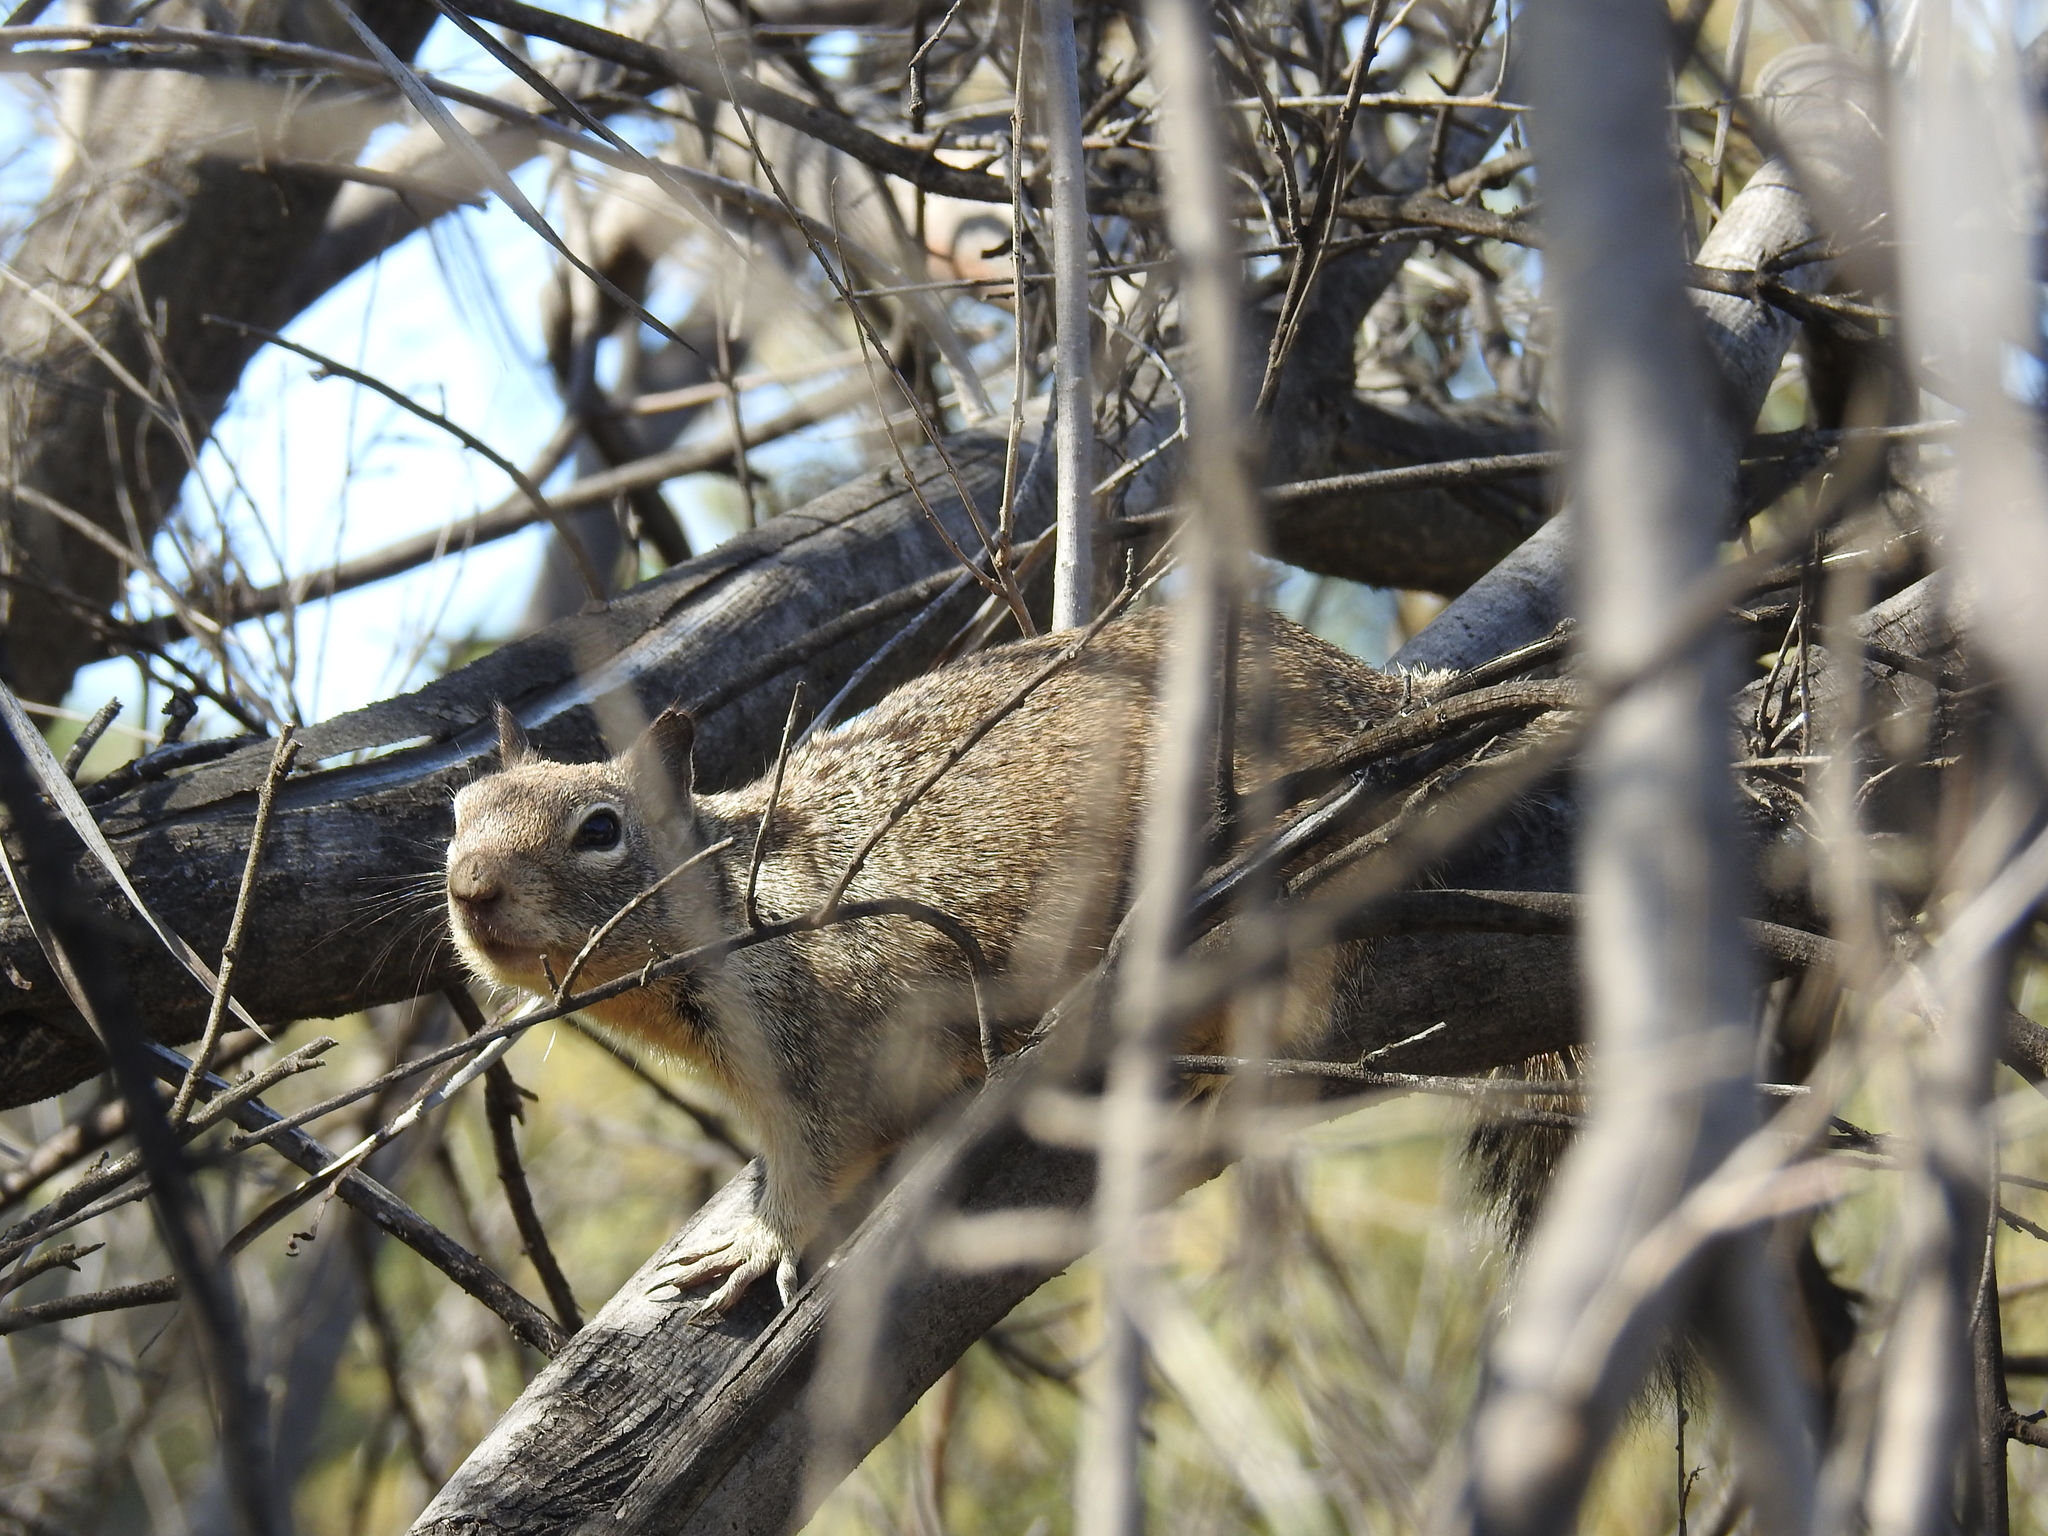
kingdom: Animalia
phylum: Chordata
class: Mammalia
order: Rodentia
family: Sciuridae
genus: Otospermophilus
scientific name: Otospermophilus beecheyi
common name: California ground squirrel
